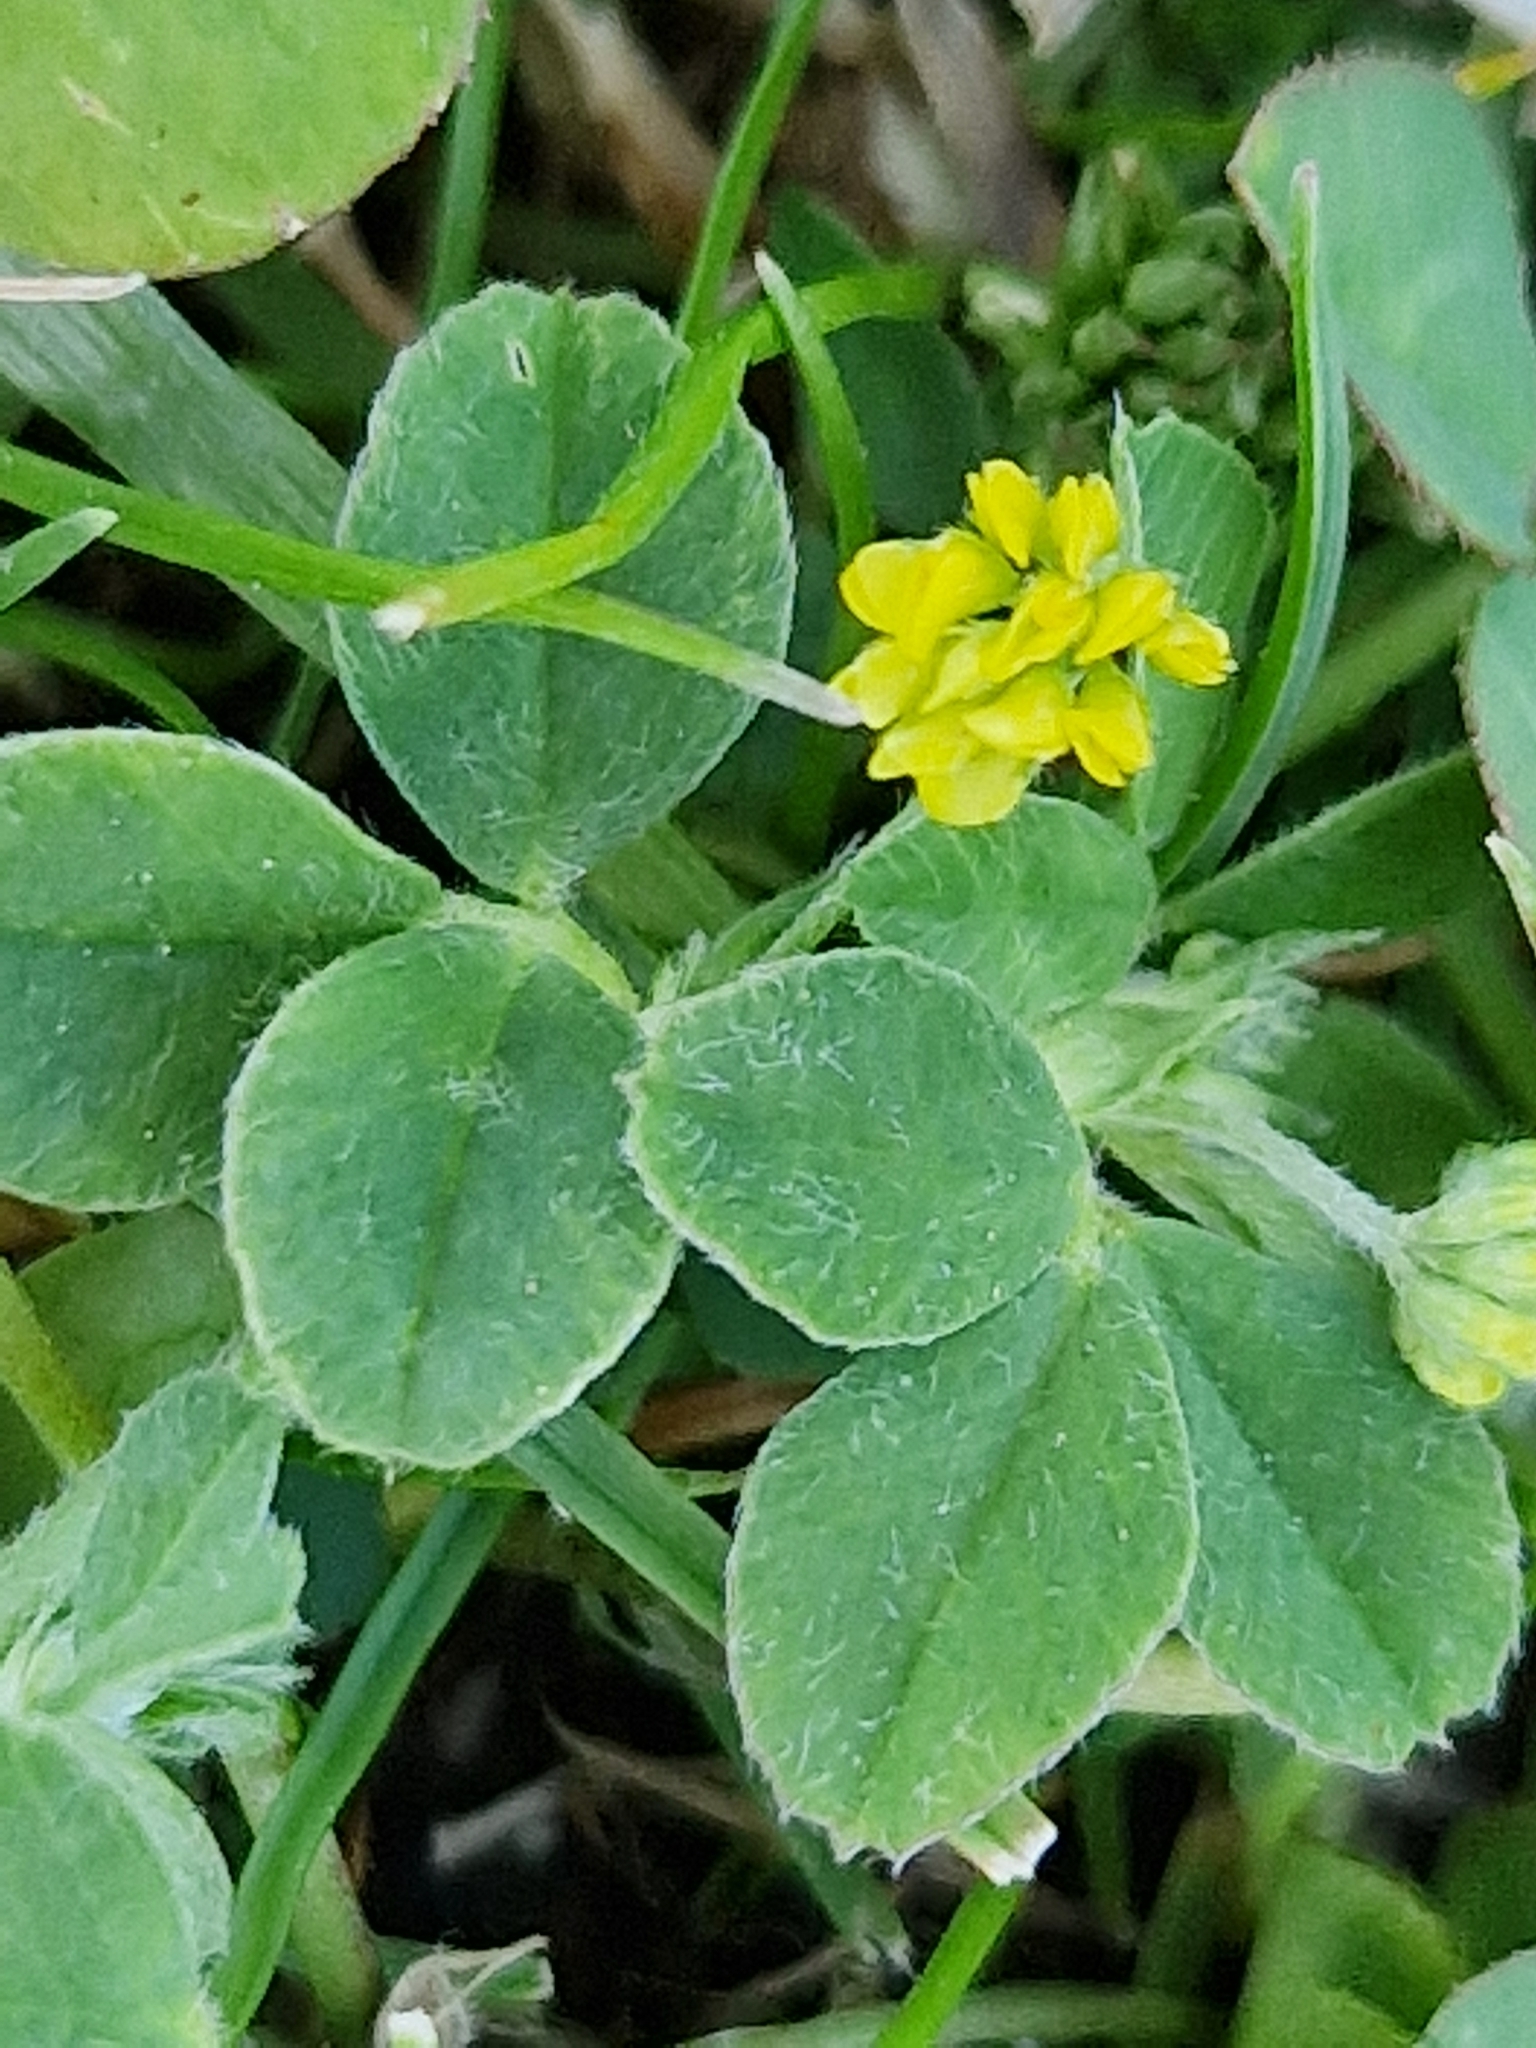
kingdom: Plantae
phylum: Tracheophyta
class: Magnoliopsida
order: Fabales
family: Fabaceae
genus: Medicago
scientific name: Medicago lupulina
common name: Black medick
